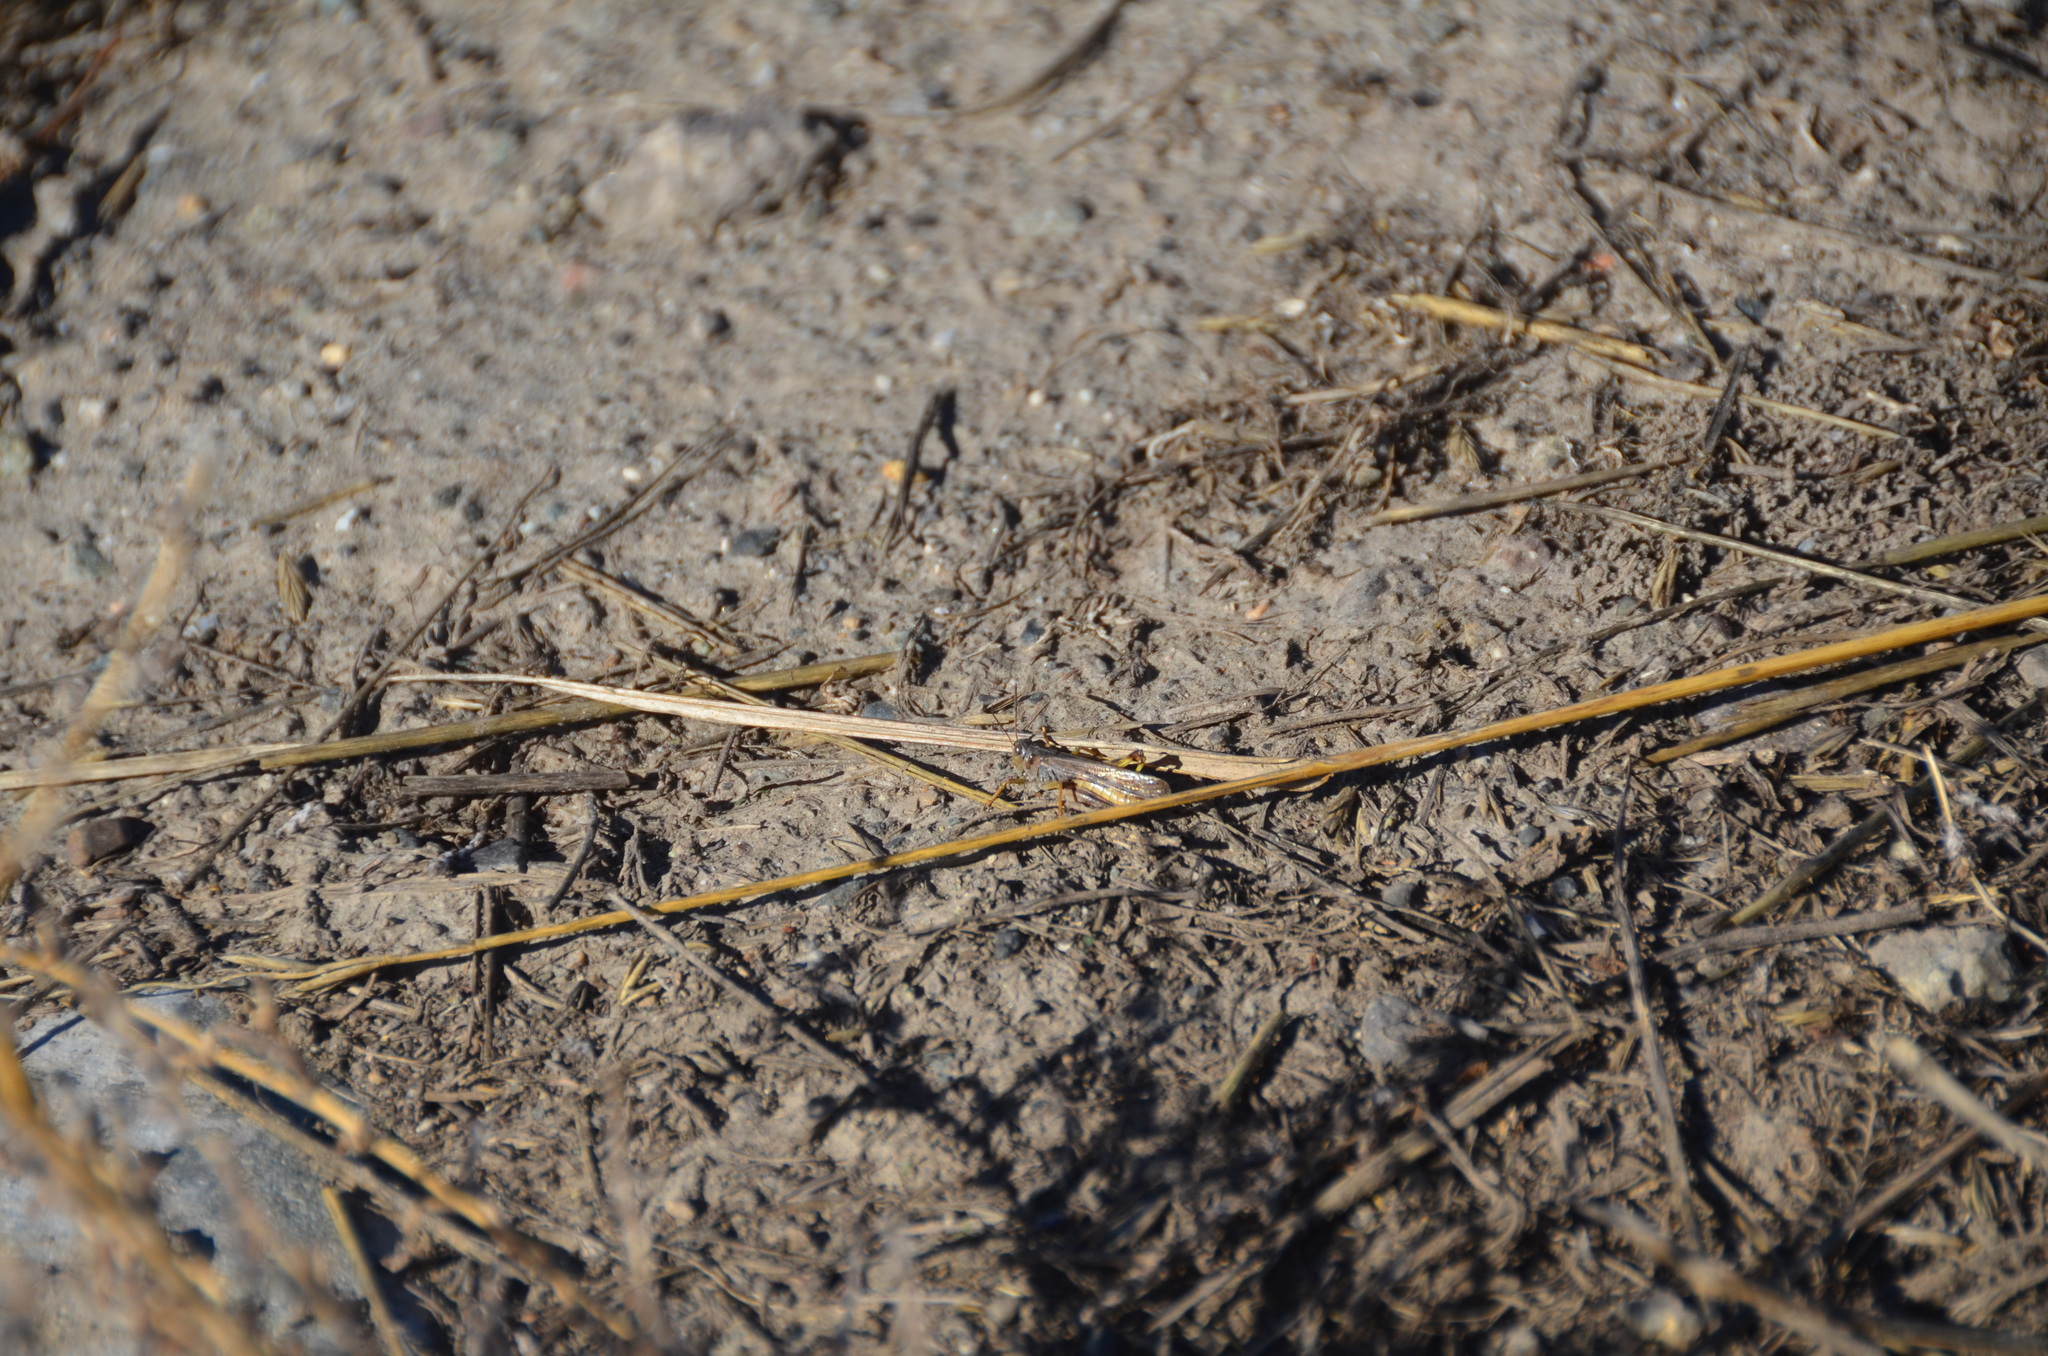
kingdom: Animalia
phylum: Arthropoda
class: Insecta
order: Orthoptera
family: Acrididae
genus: Camnula
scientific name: Camnula pellucida
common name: Clear-winged grasshopper
